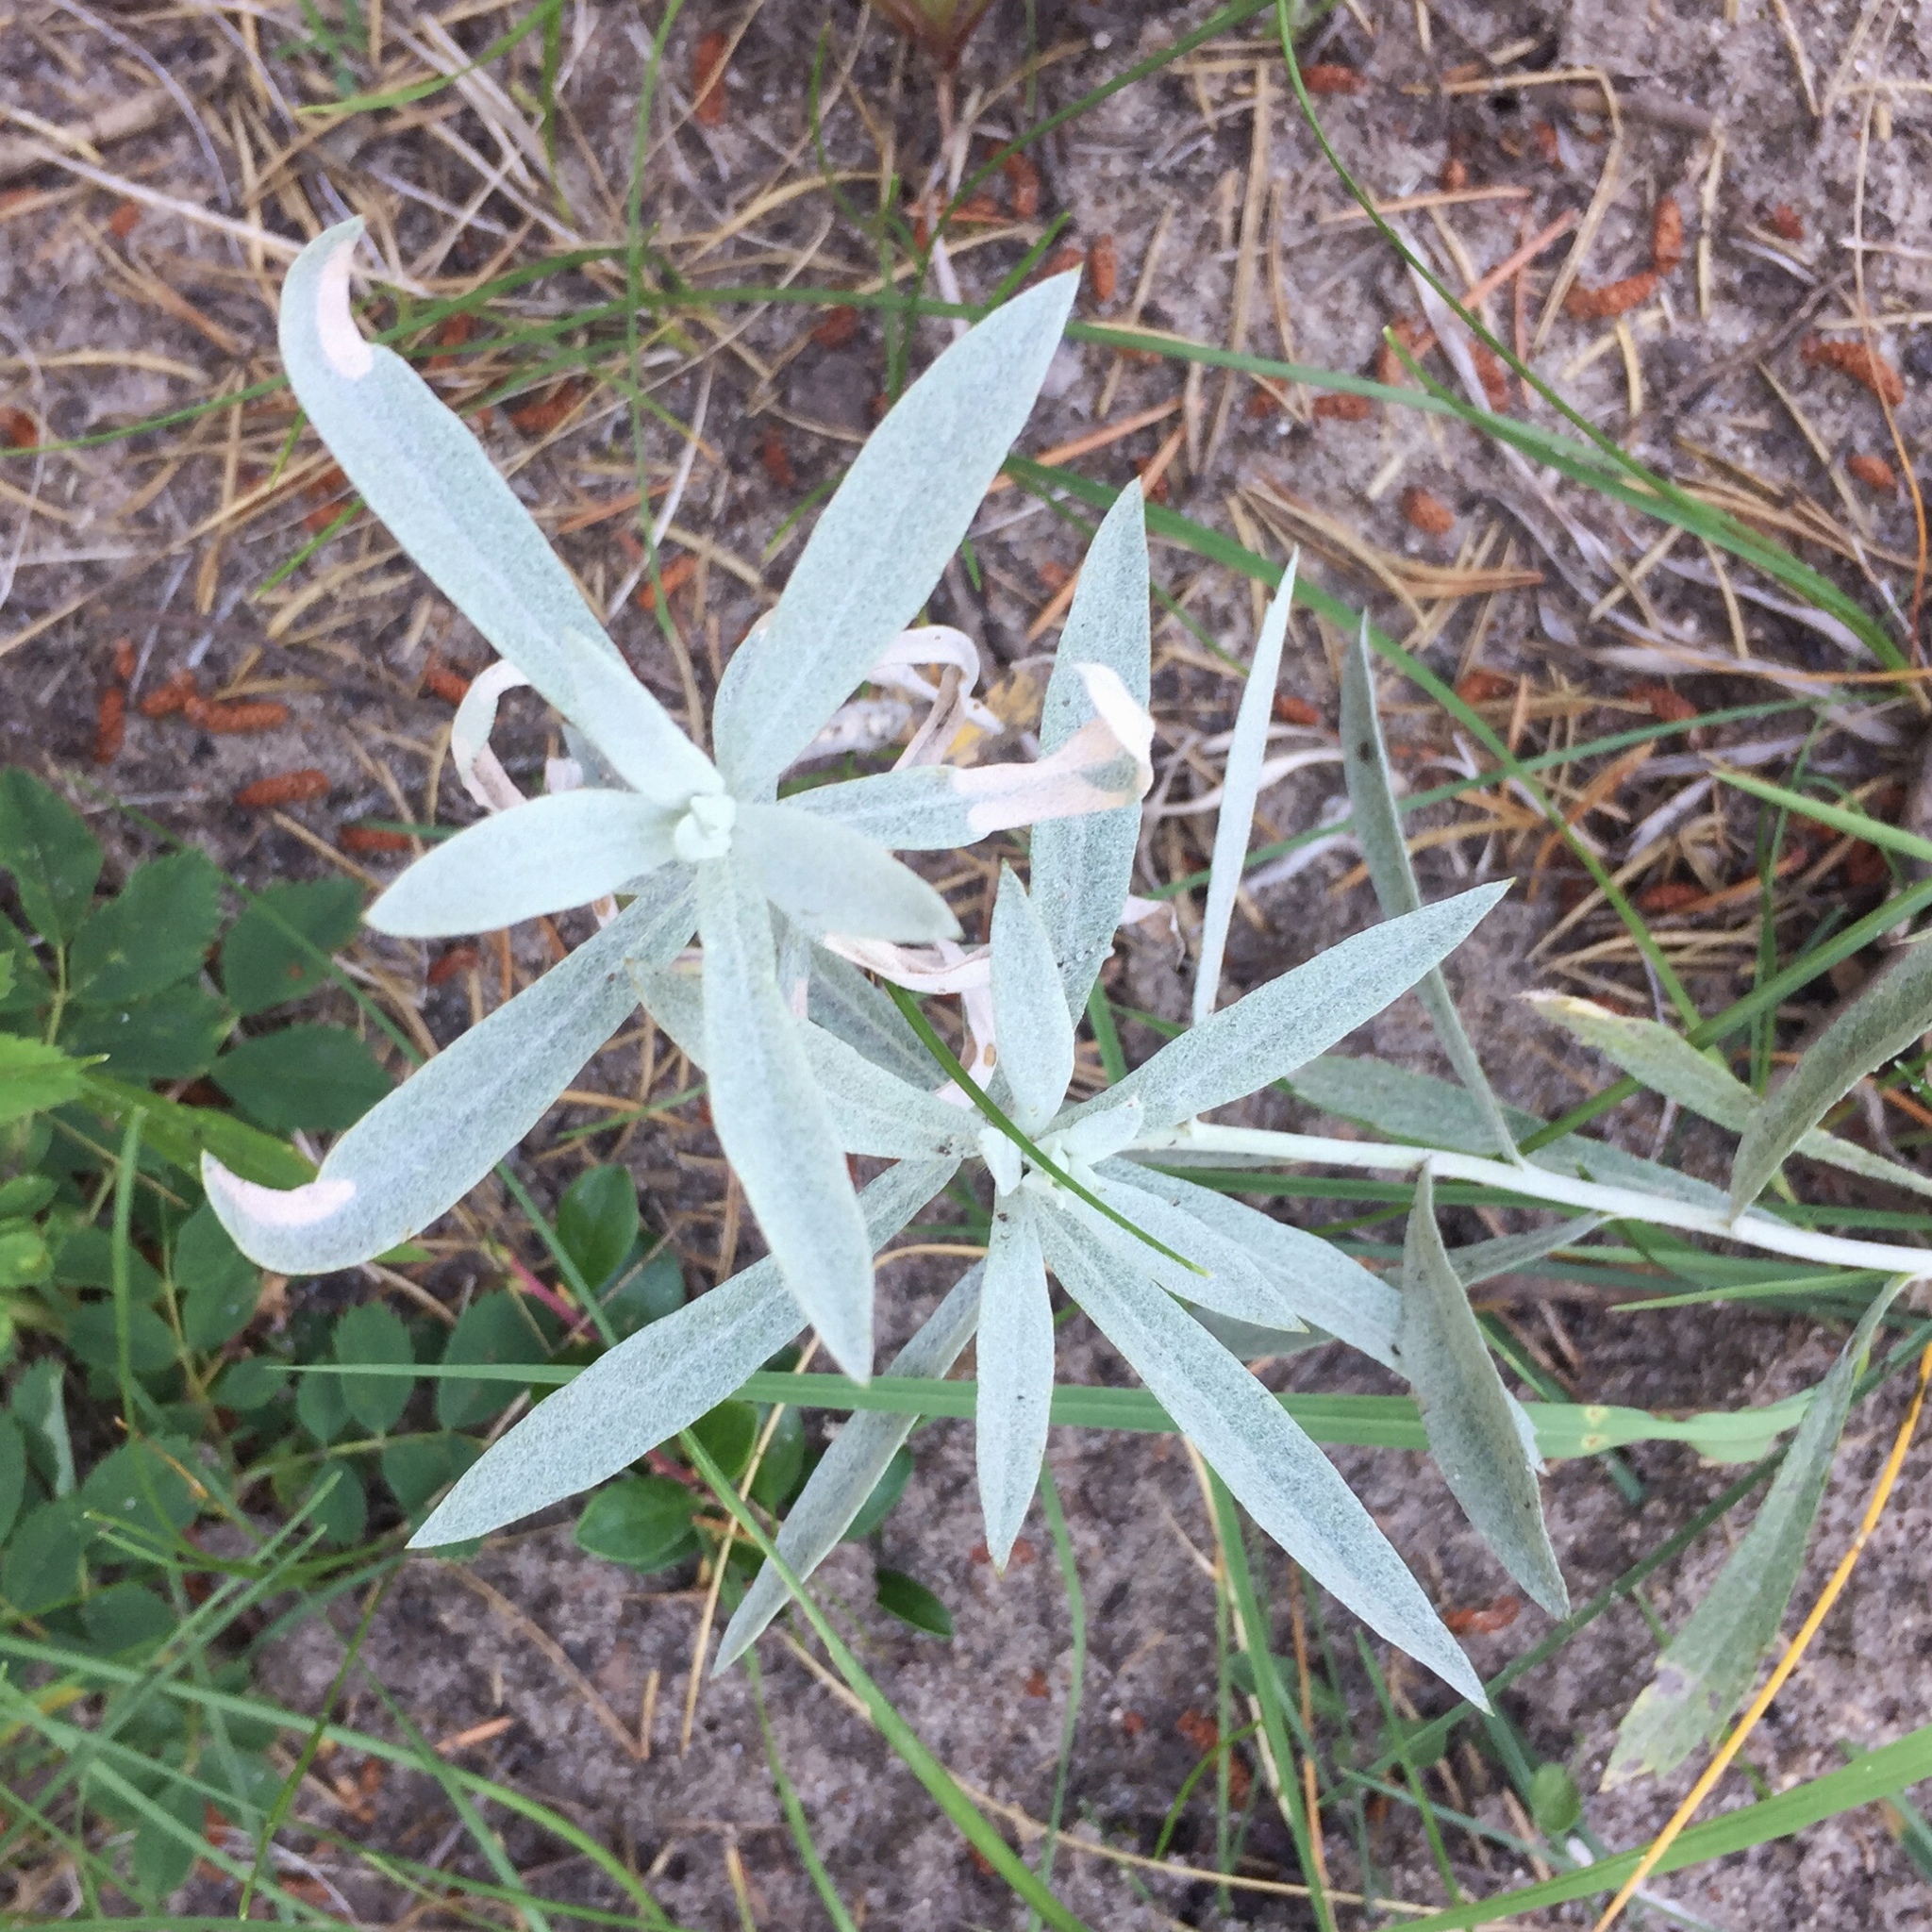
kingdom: Plantae
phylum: Tracheophyta
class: Magnoliopsida
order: Asterales
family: Asteraceae
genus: Artemisia
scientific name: Artemisia ludoviciana
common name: Western mugwort
